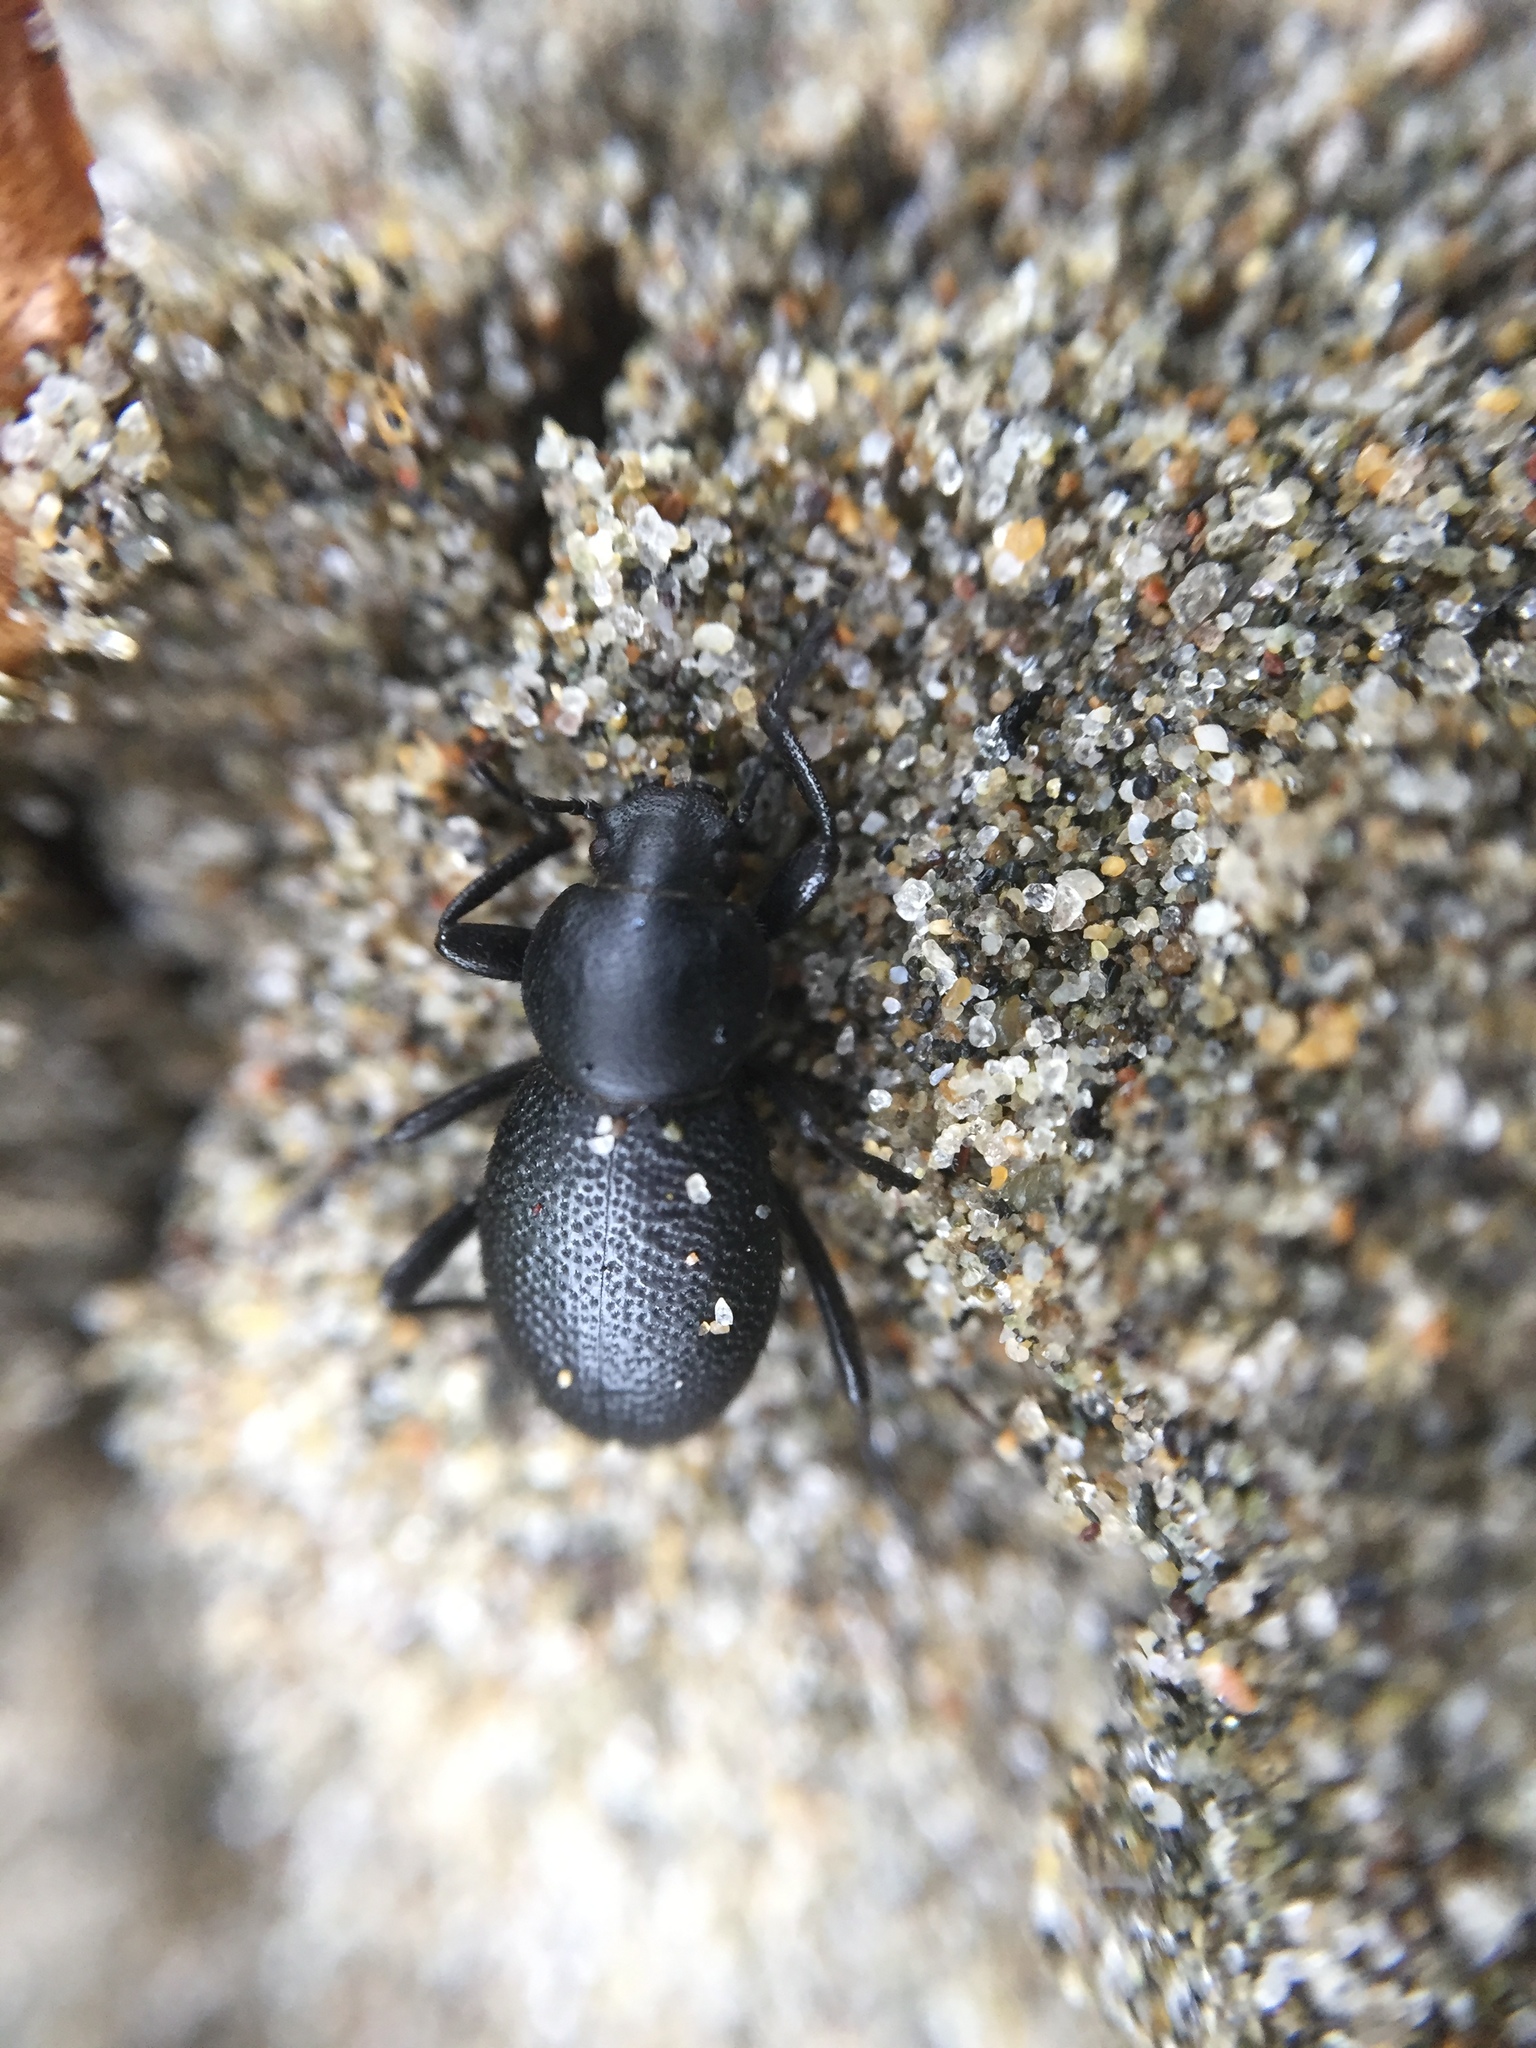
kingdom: Animalia
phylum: Arthropoda
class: Insecta
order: Coleoptera
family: Tenebrionidae
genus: Eleodes
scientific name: Eleodes clavicornis
